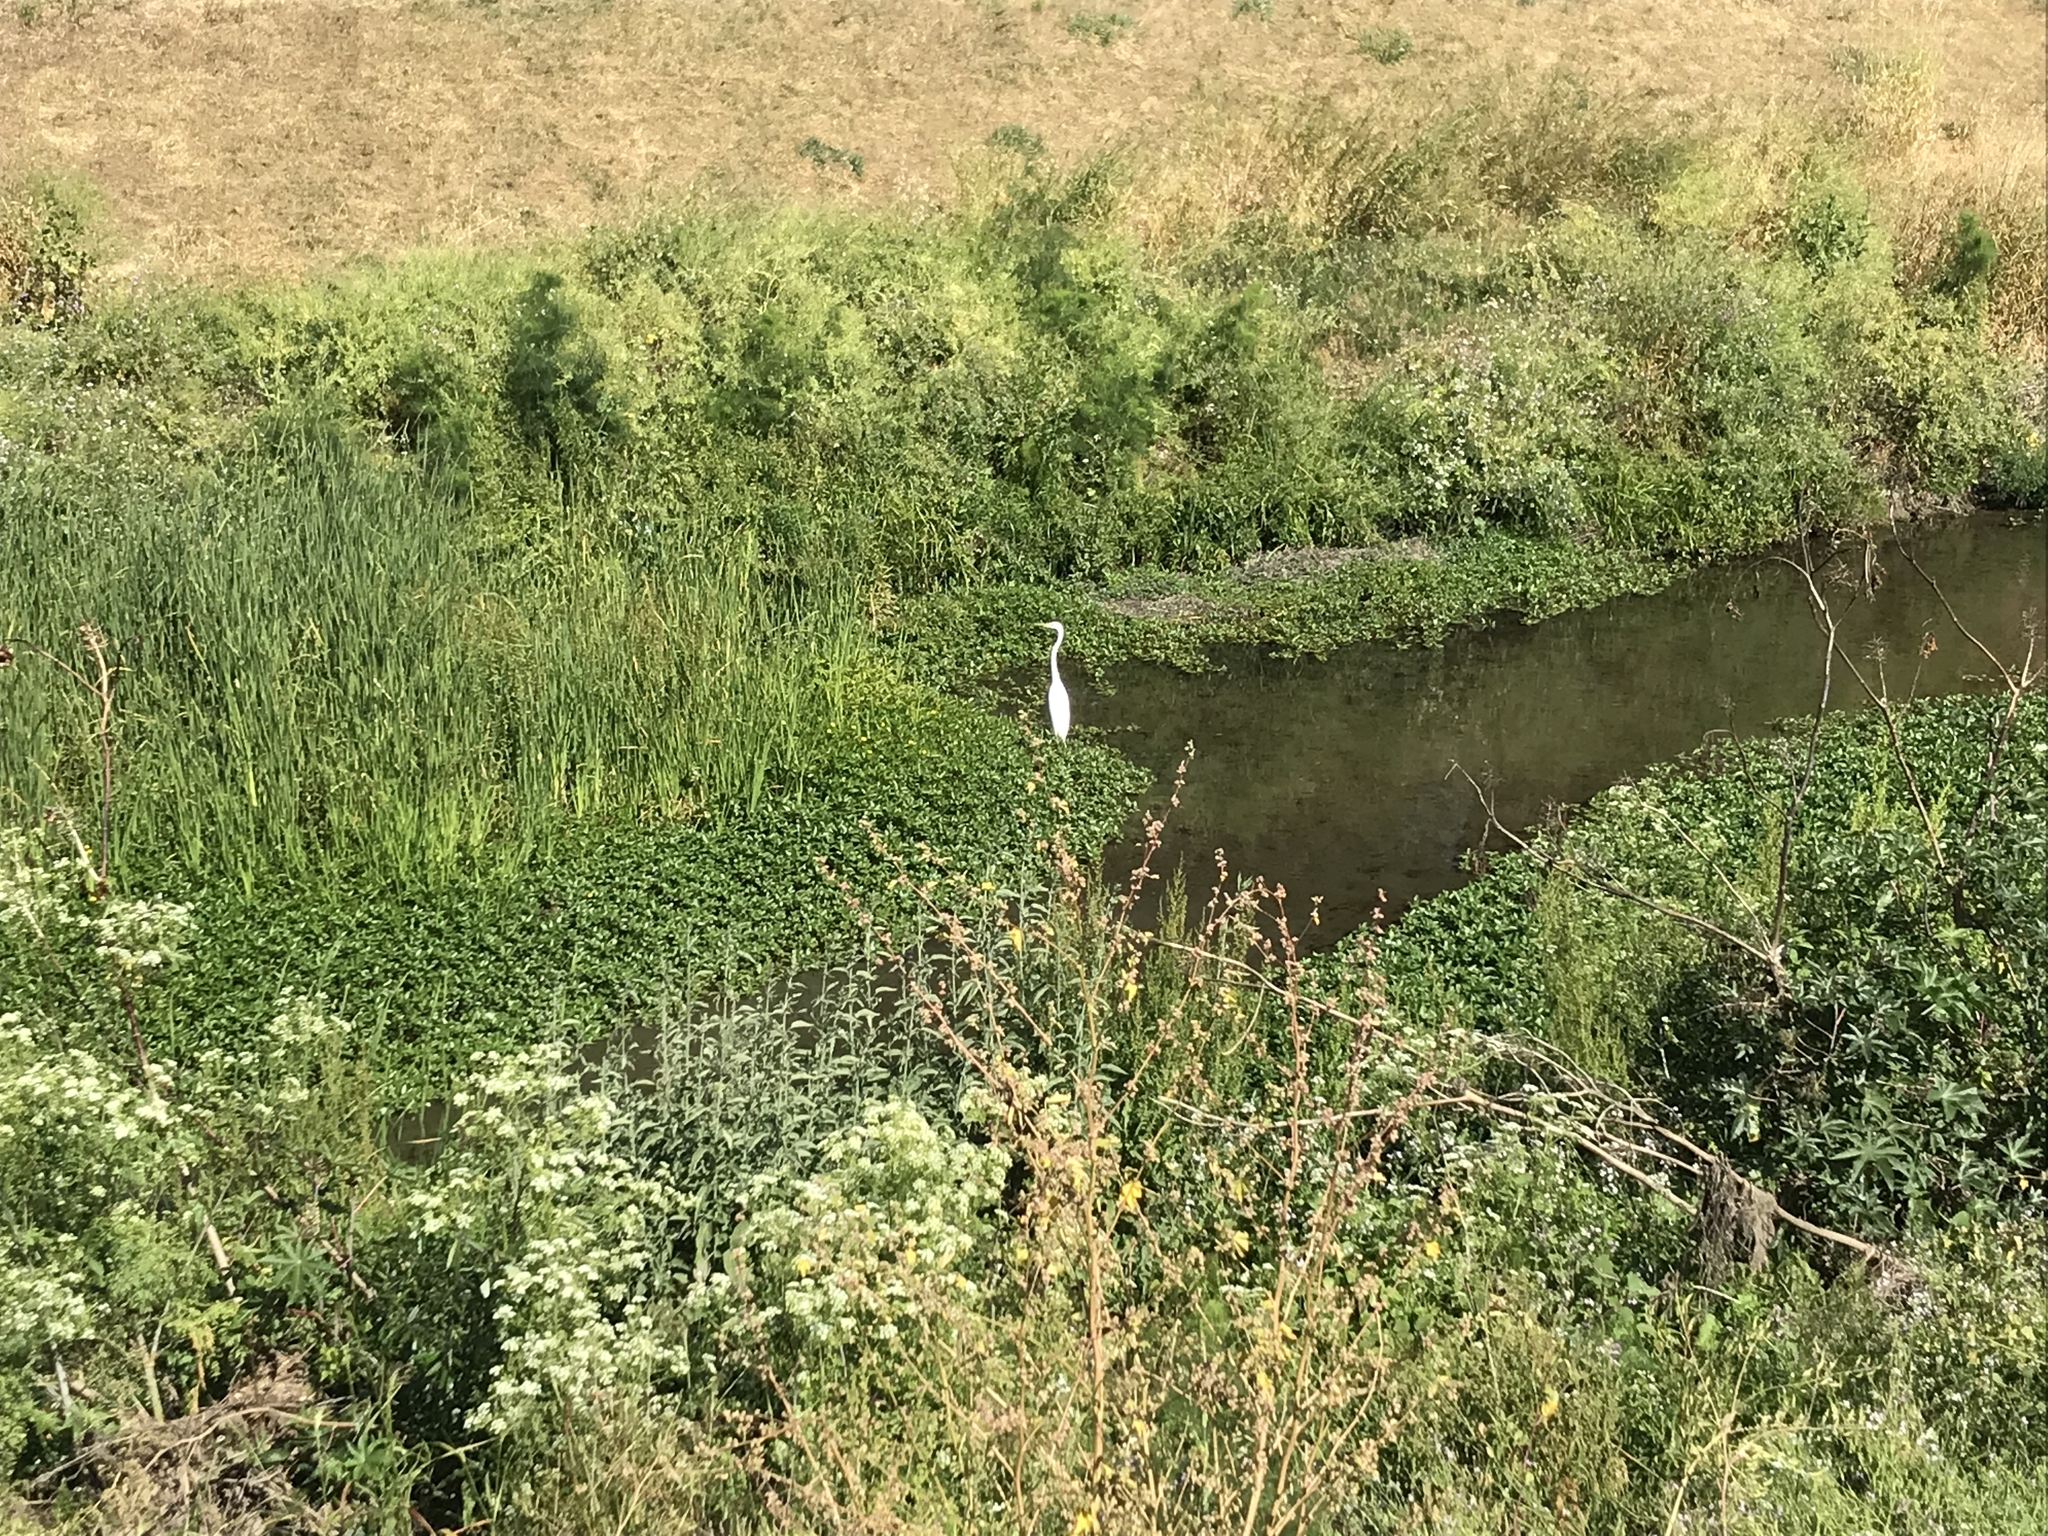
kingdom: Animalia
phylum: Chordata
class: Aves
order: Pelecaniformes
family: Ardeidae
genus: Ardea
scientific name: Ardea alba
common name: Great egret
